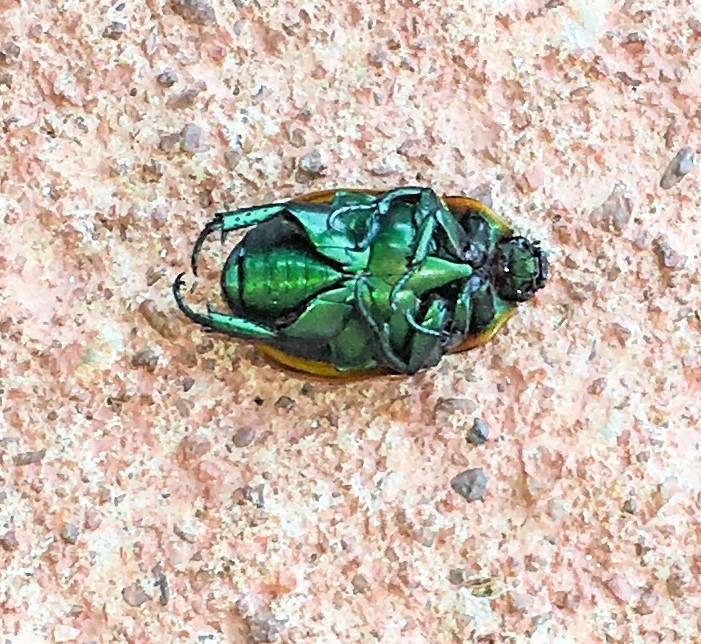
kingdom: Animalia
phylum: Arthropoda
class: Insecta
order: Coleoptera
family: Scarabaeidae
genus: Macraspis
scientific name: Macraspis chloraspis
